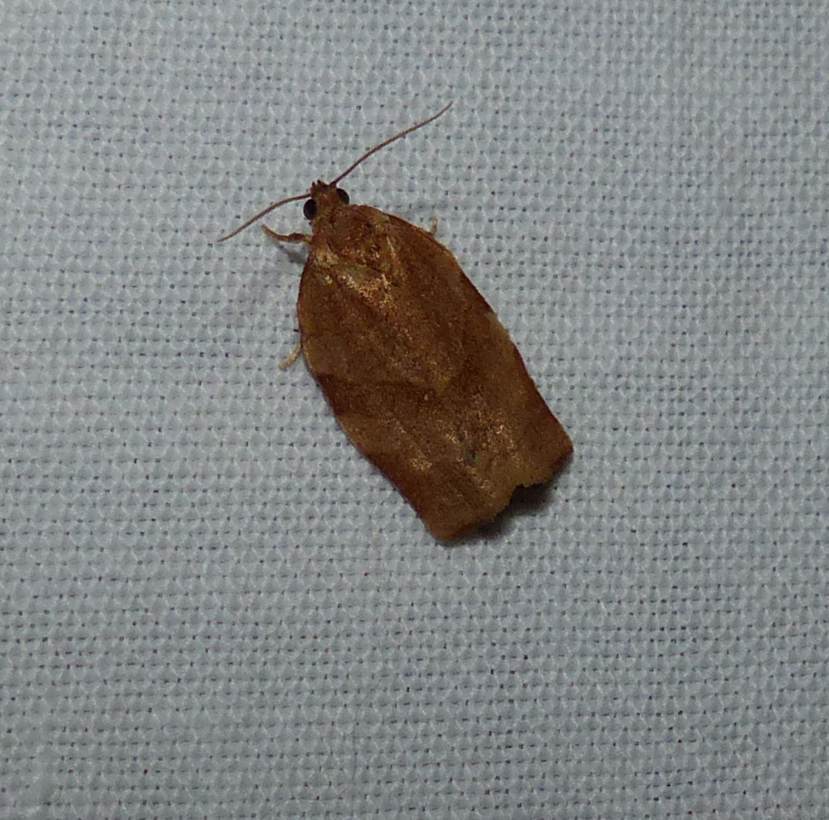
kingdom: Animalia
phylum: Arthropoda
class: Insecta
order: Lepidoptera
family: Tortricidae
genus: Choristoneura
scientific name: Choristoneura rosaceana
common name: Oblique-banded leafroller moth
